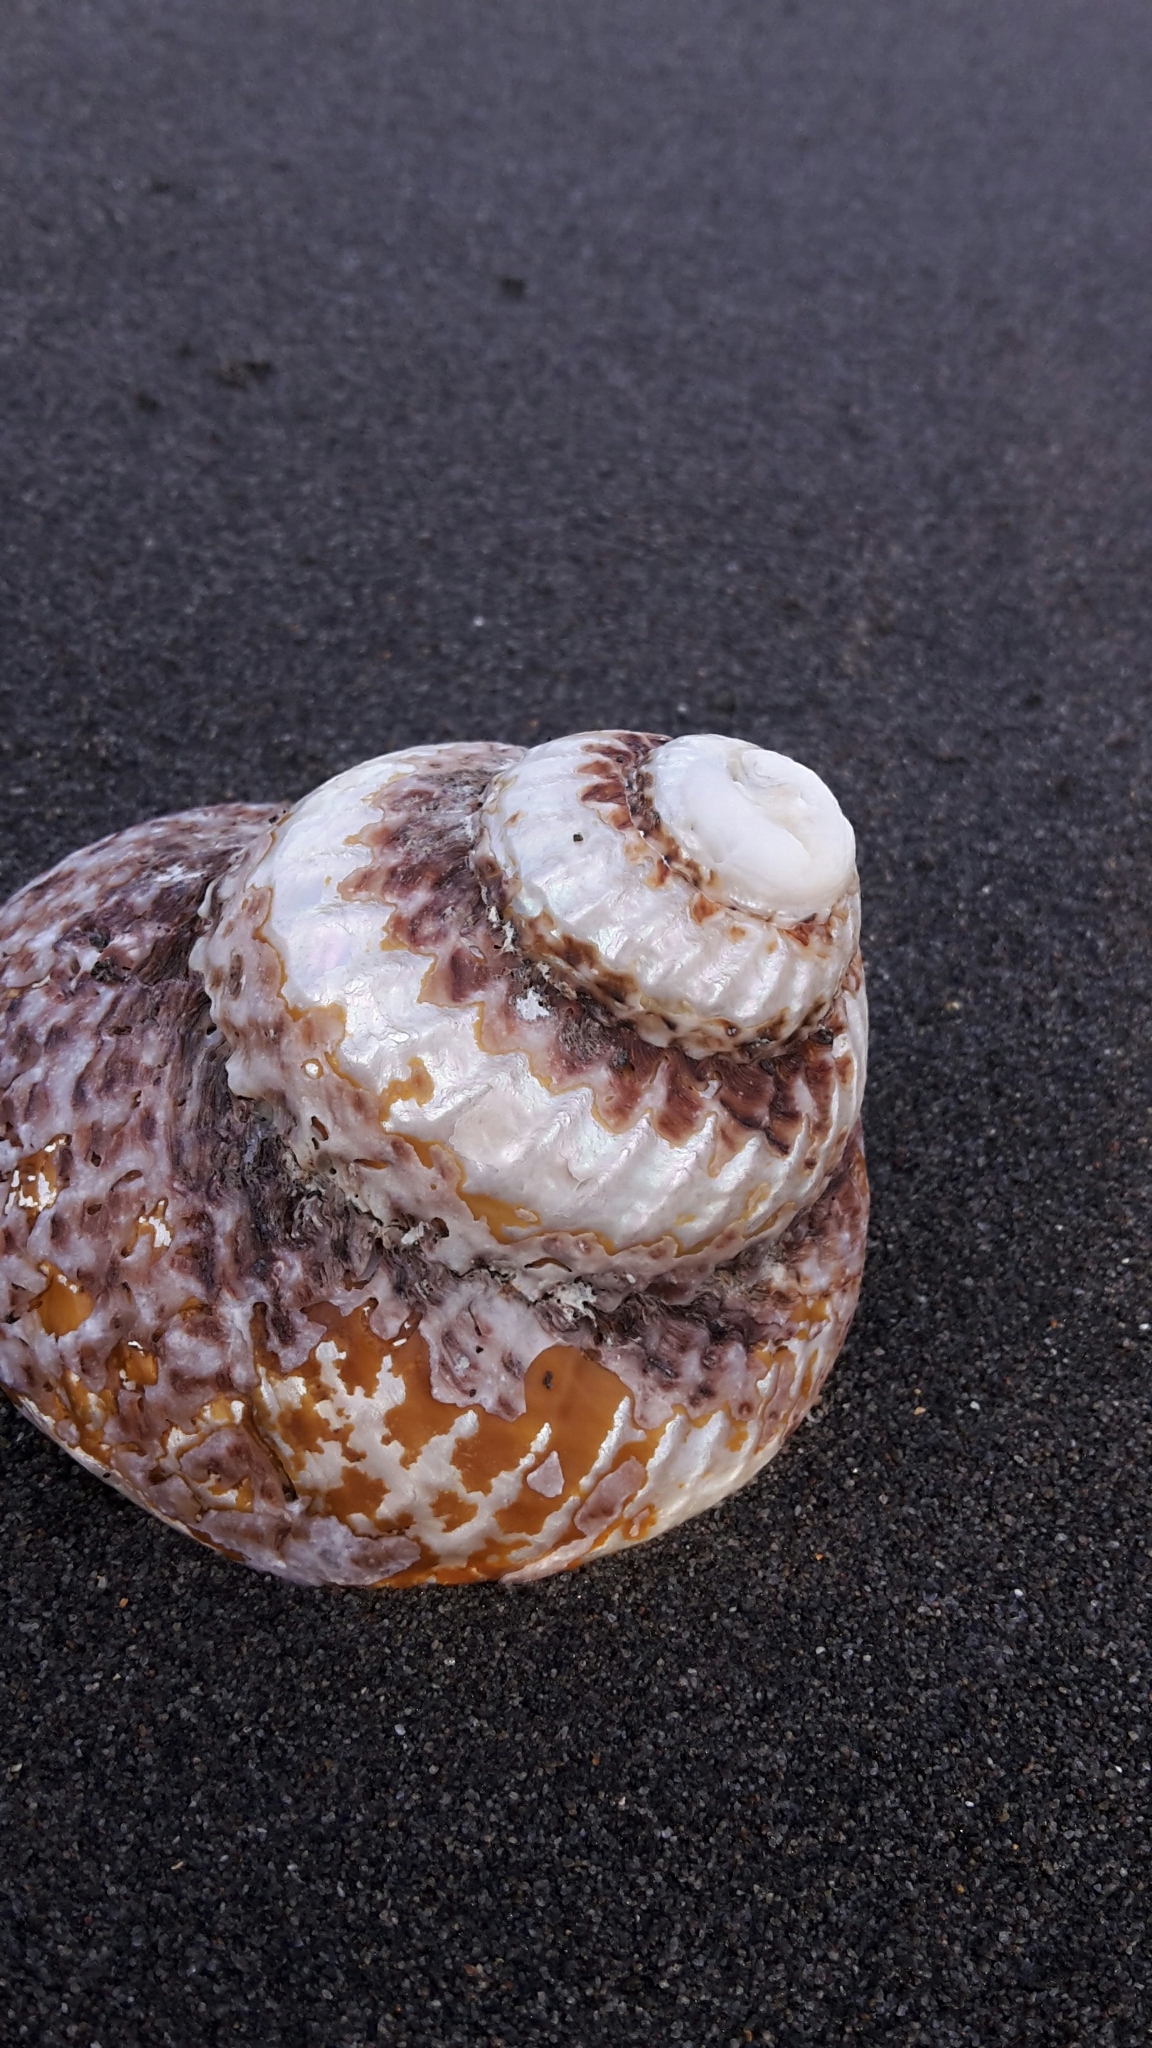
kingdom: Animalia
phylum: Mollusca
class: Gastropoda
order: Trochida
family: Turbinidae
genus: Cookia
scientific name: Cookia sulcata
